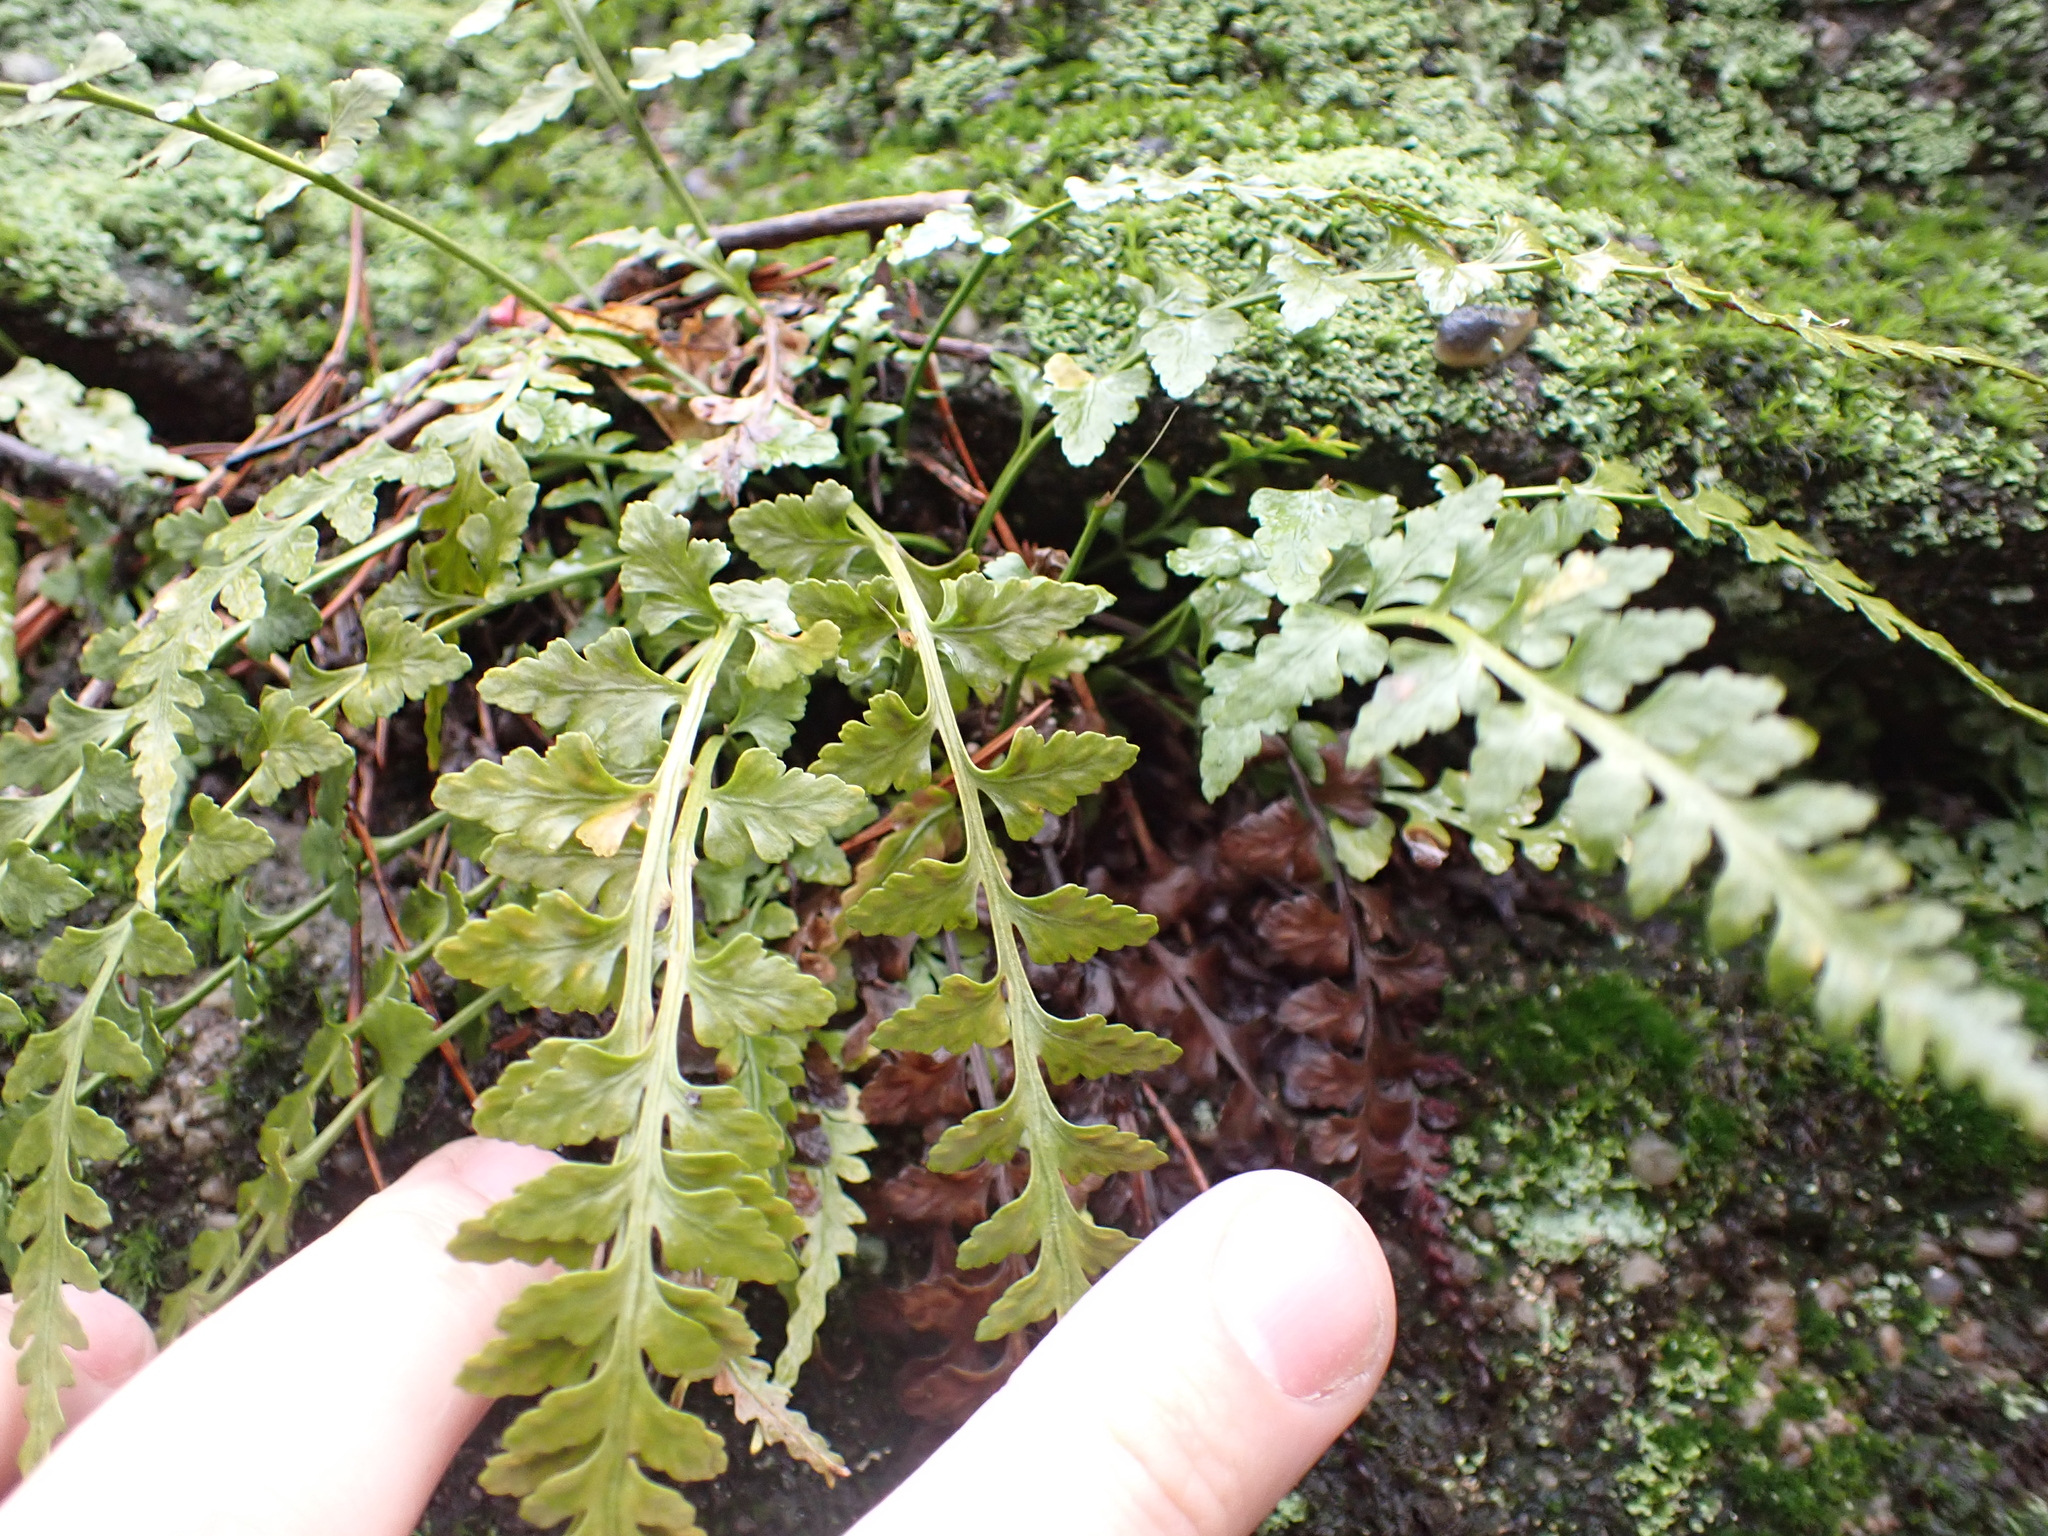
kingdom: Plantae
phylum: Tracheophyta
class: Polypodiopsida
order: Polypodiales
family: Aspleniaceae
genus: Asplenium
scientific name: Asplenium trudellii
